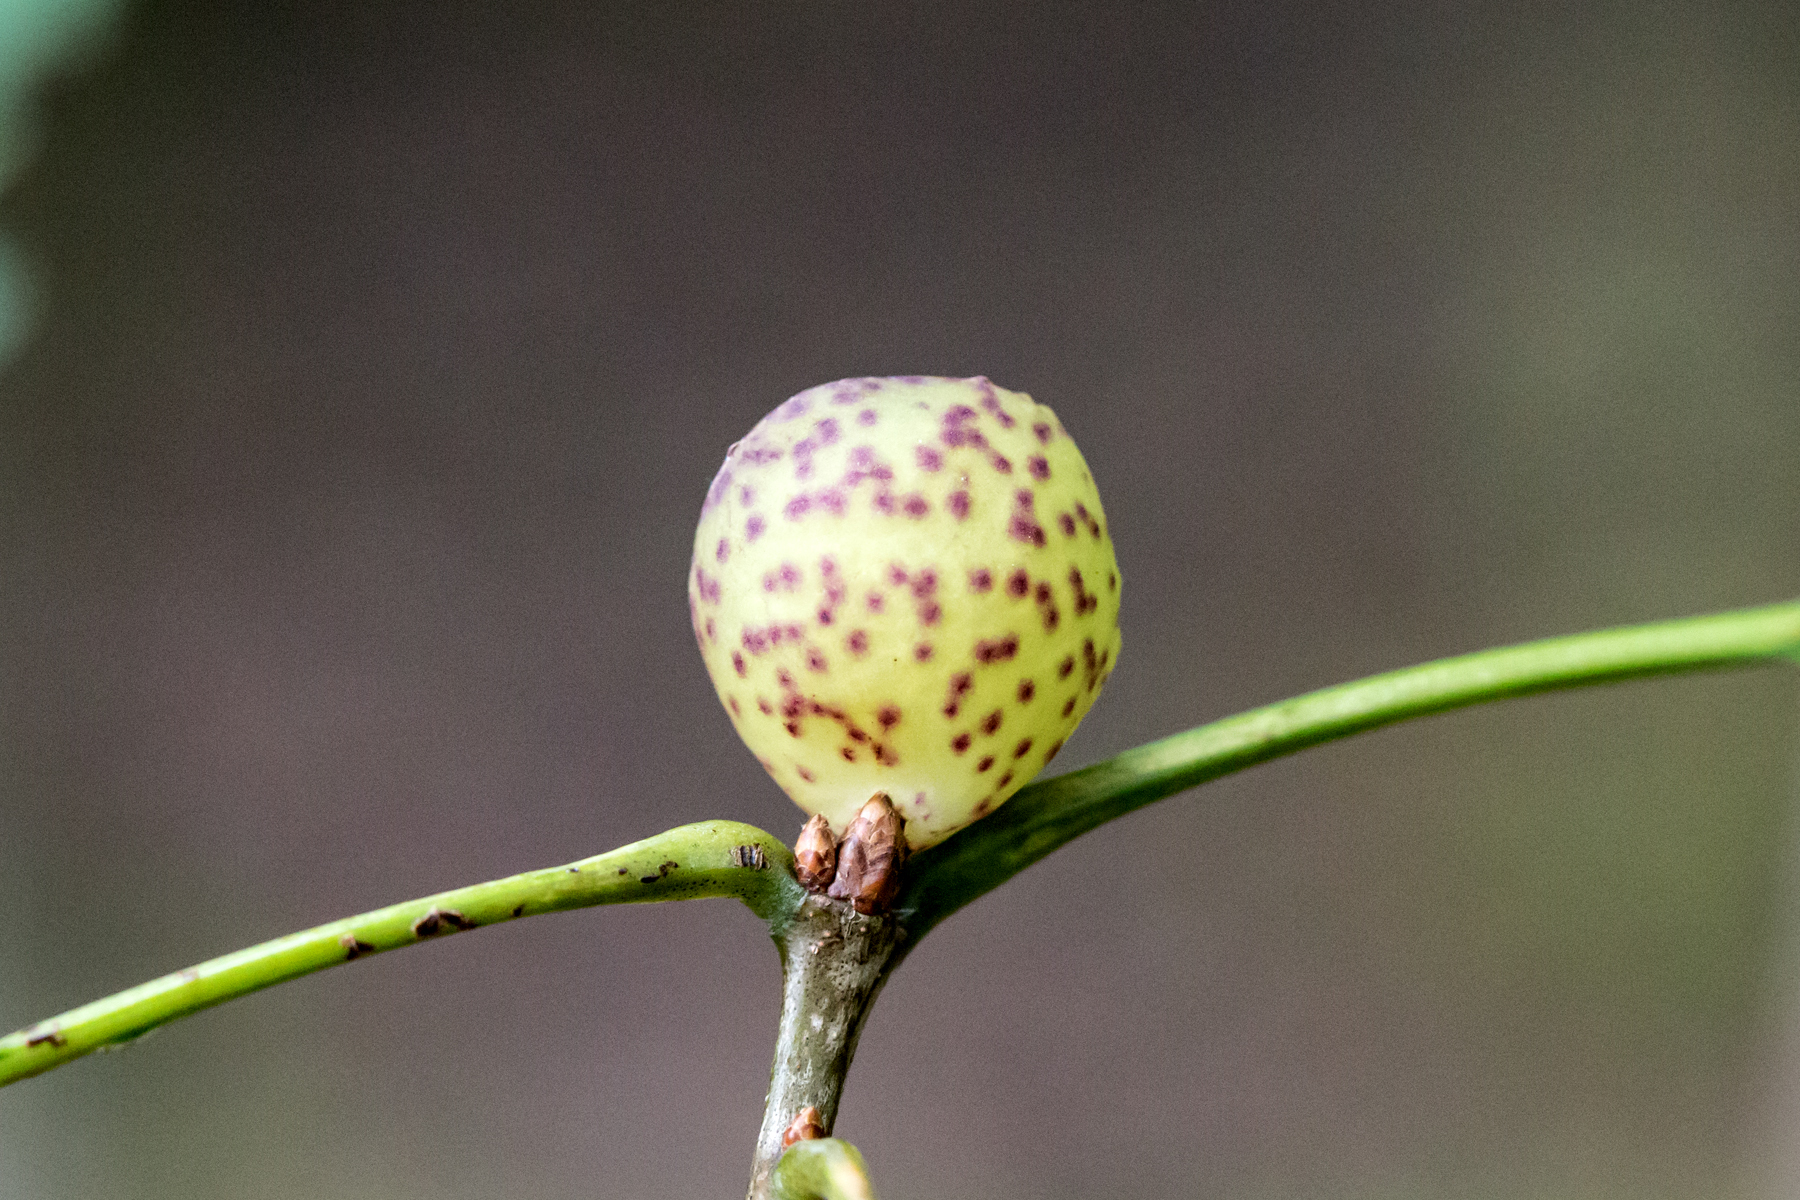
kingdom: Animalia
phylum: Arthropoda
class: Insecta
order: Hymenoptera
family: Cynipidae
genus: Amphibolips
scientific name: Amphibolips
